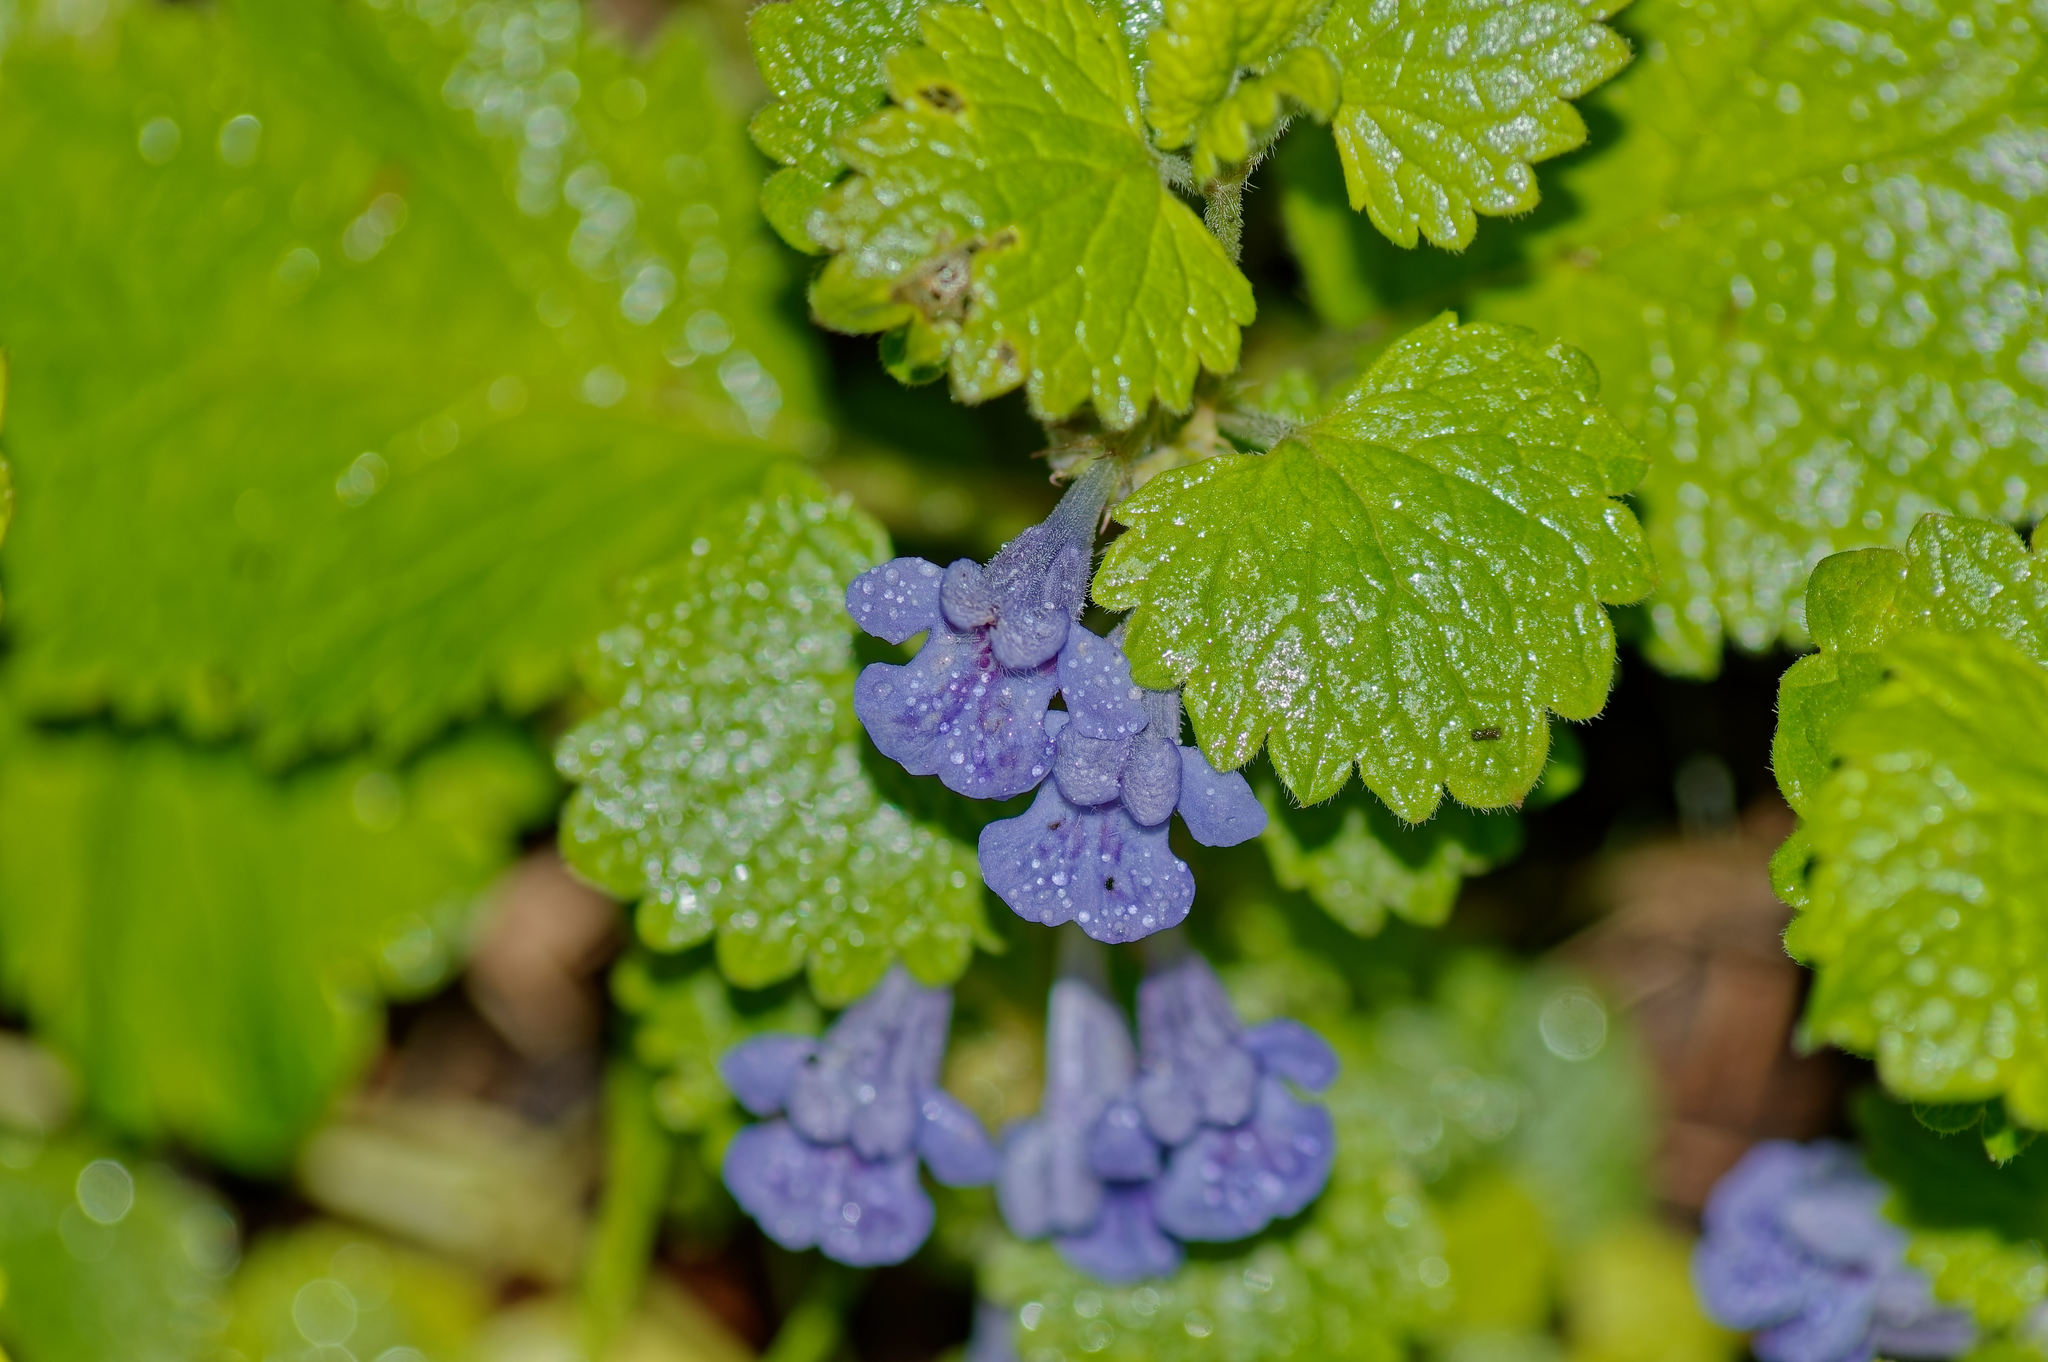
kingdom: Plantae
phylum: Tracheophyta
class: Magnoliopsida
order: Lamiales
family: Lamiaceae
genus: Glechoma
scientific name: Glechoma hederacea
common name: Ground ivy
